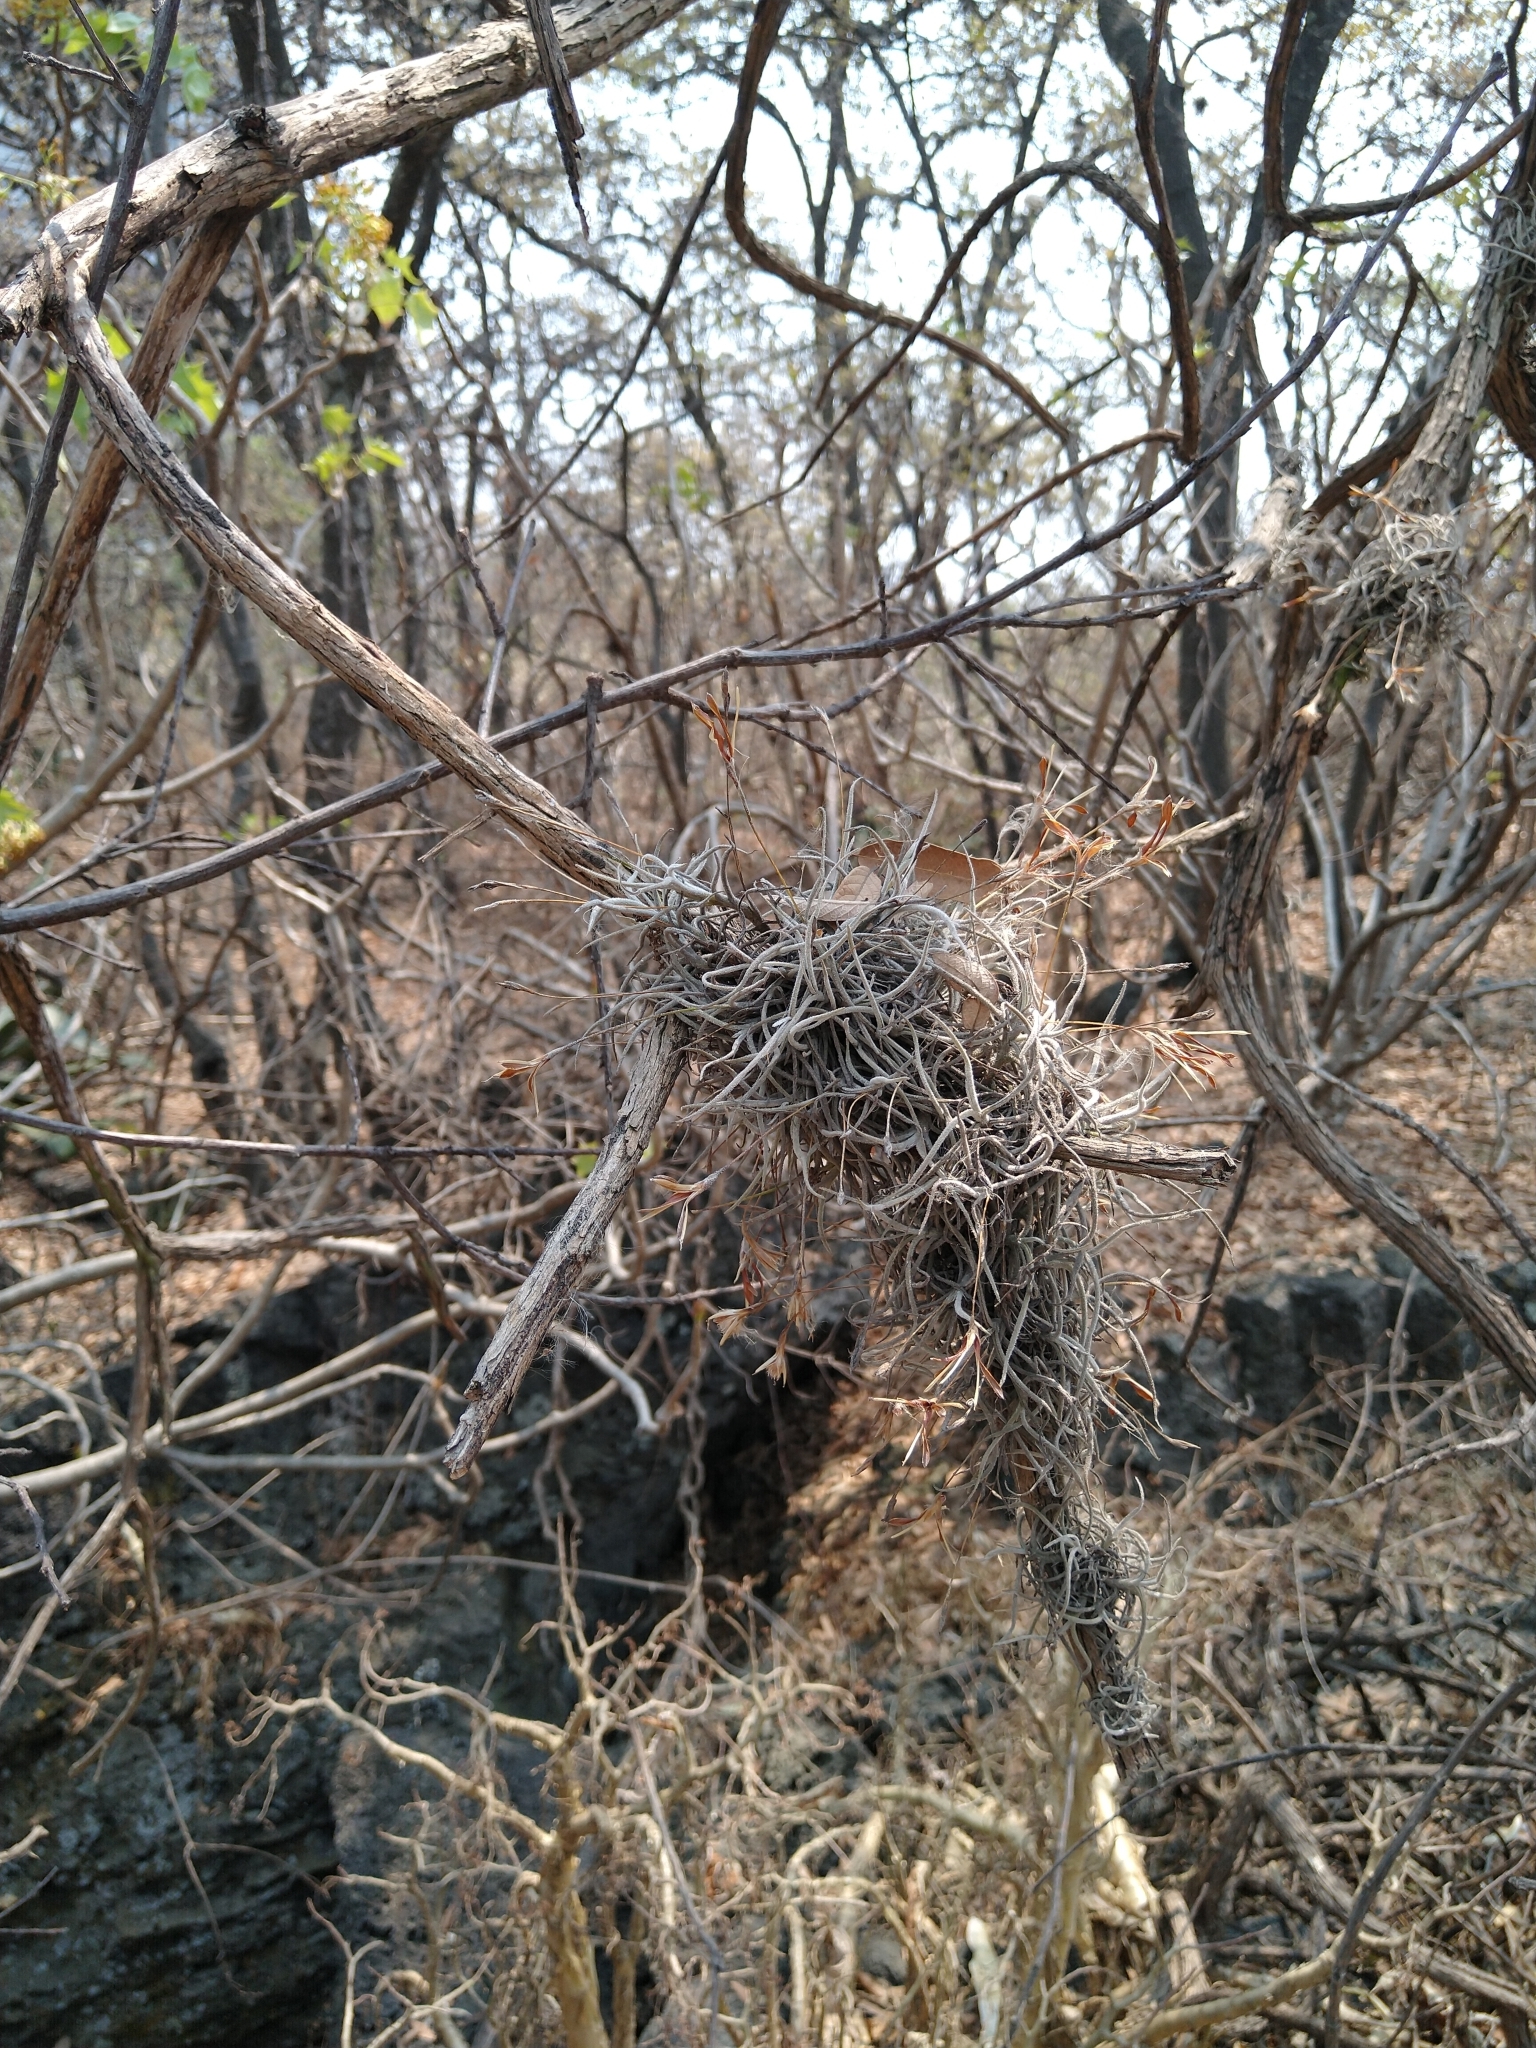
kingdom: Plantae
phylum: Tracheophyta
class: Liliopsida
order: Poales
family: Bromeliaceae
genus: Tillandsia
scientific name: Tillandsia recurvata
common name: Small ballmoss
